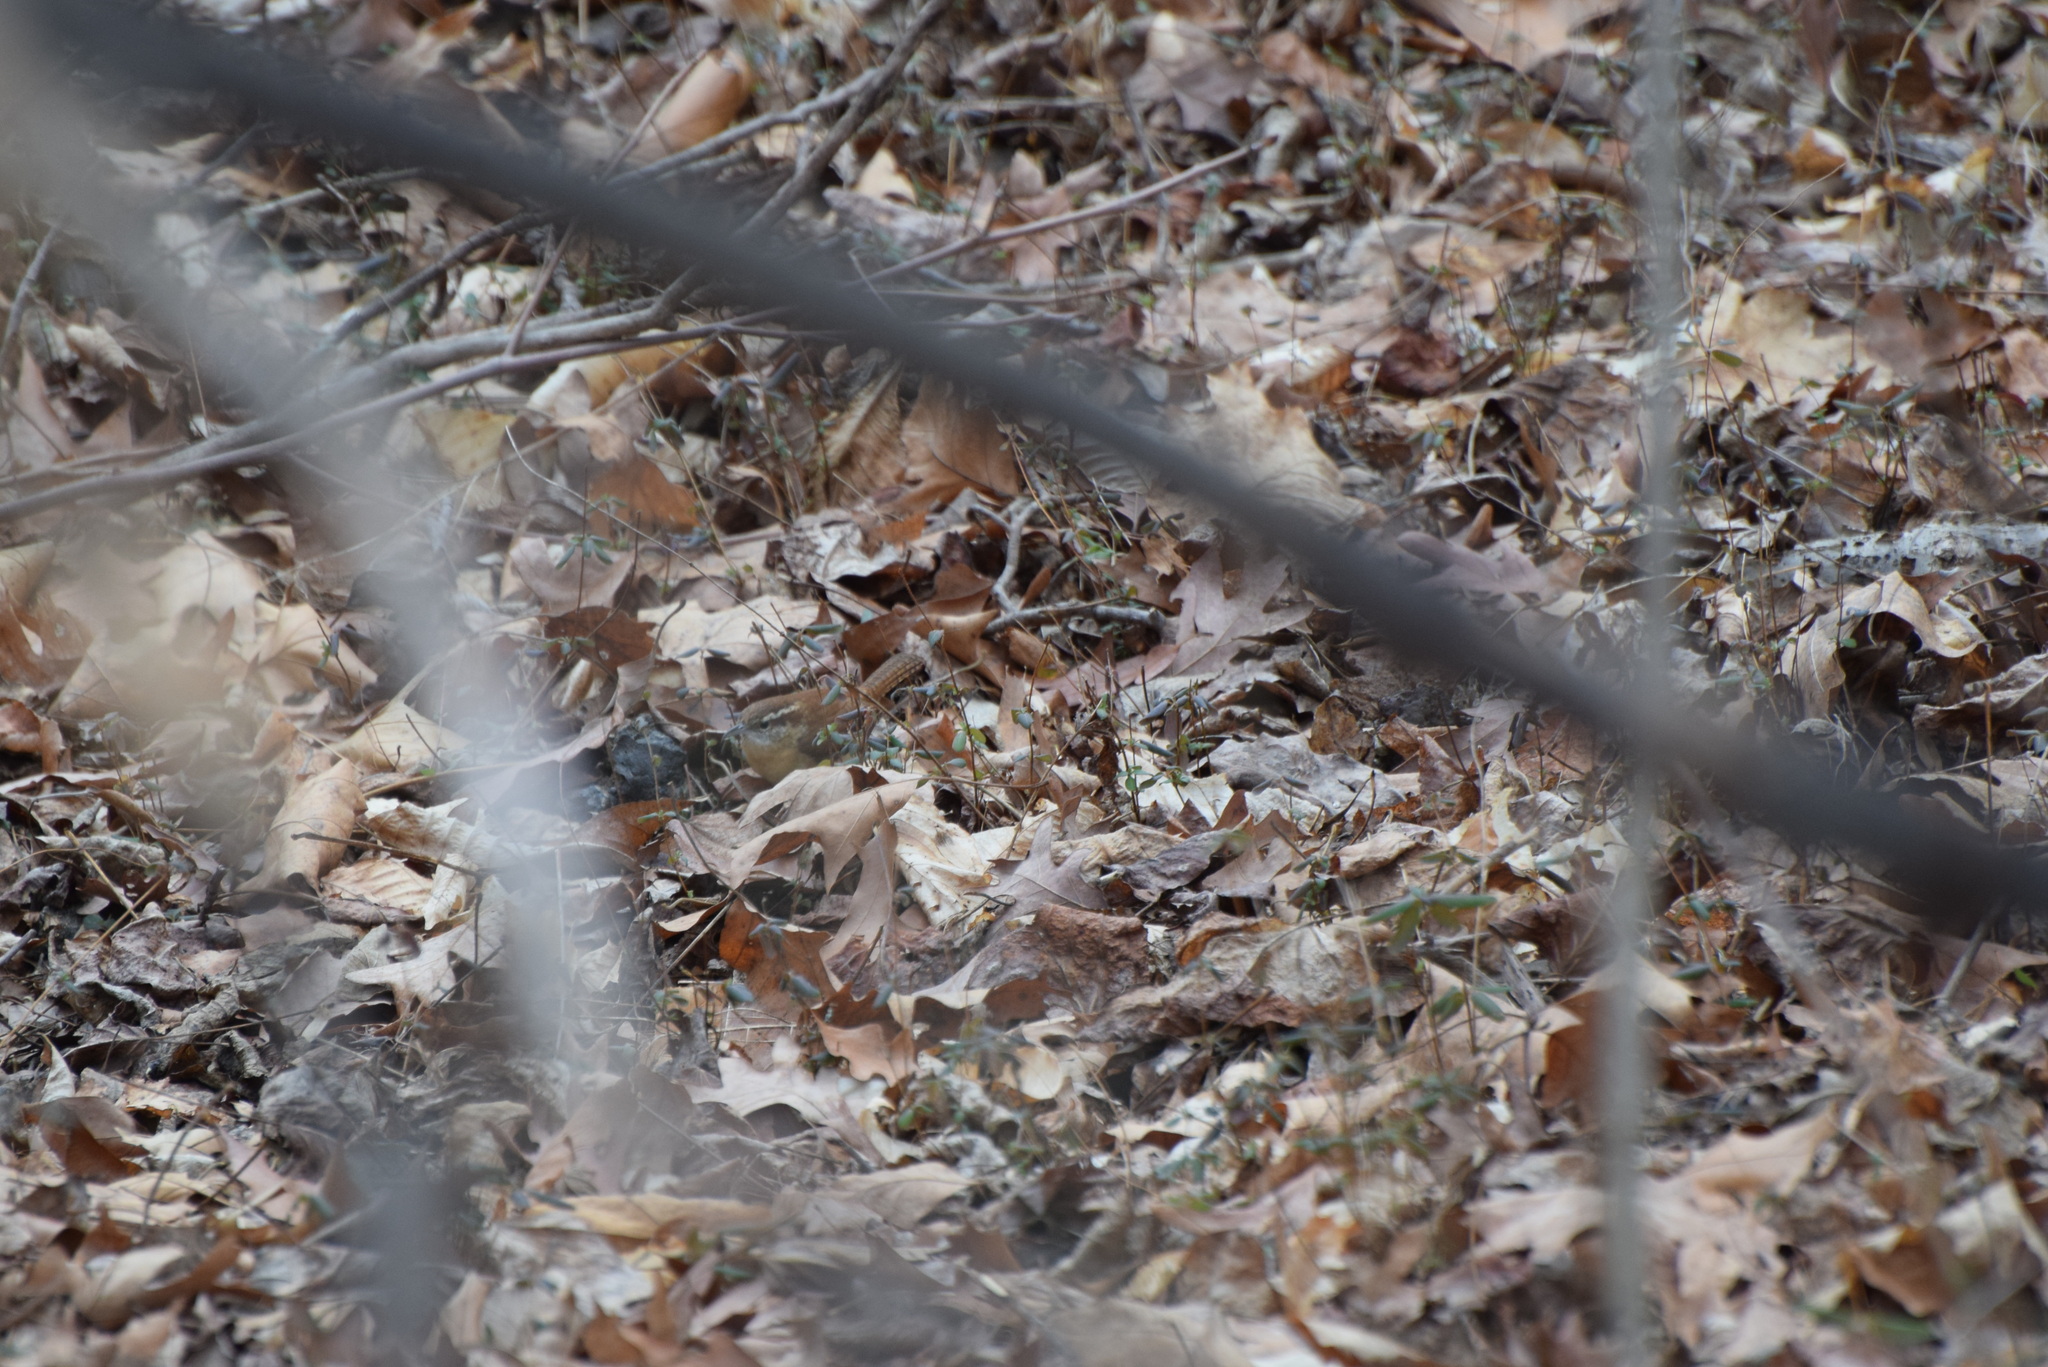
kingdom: Animalia
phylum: Chordata
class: Aves
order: Passeriformes
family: Troglodytidae
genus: Thryothorus
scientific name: Thryothorus ludovicianus
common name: Carolina wren
